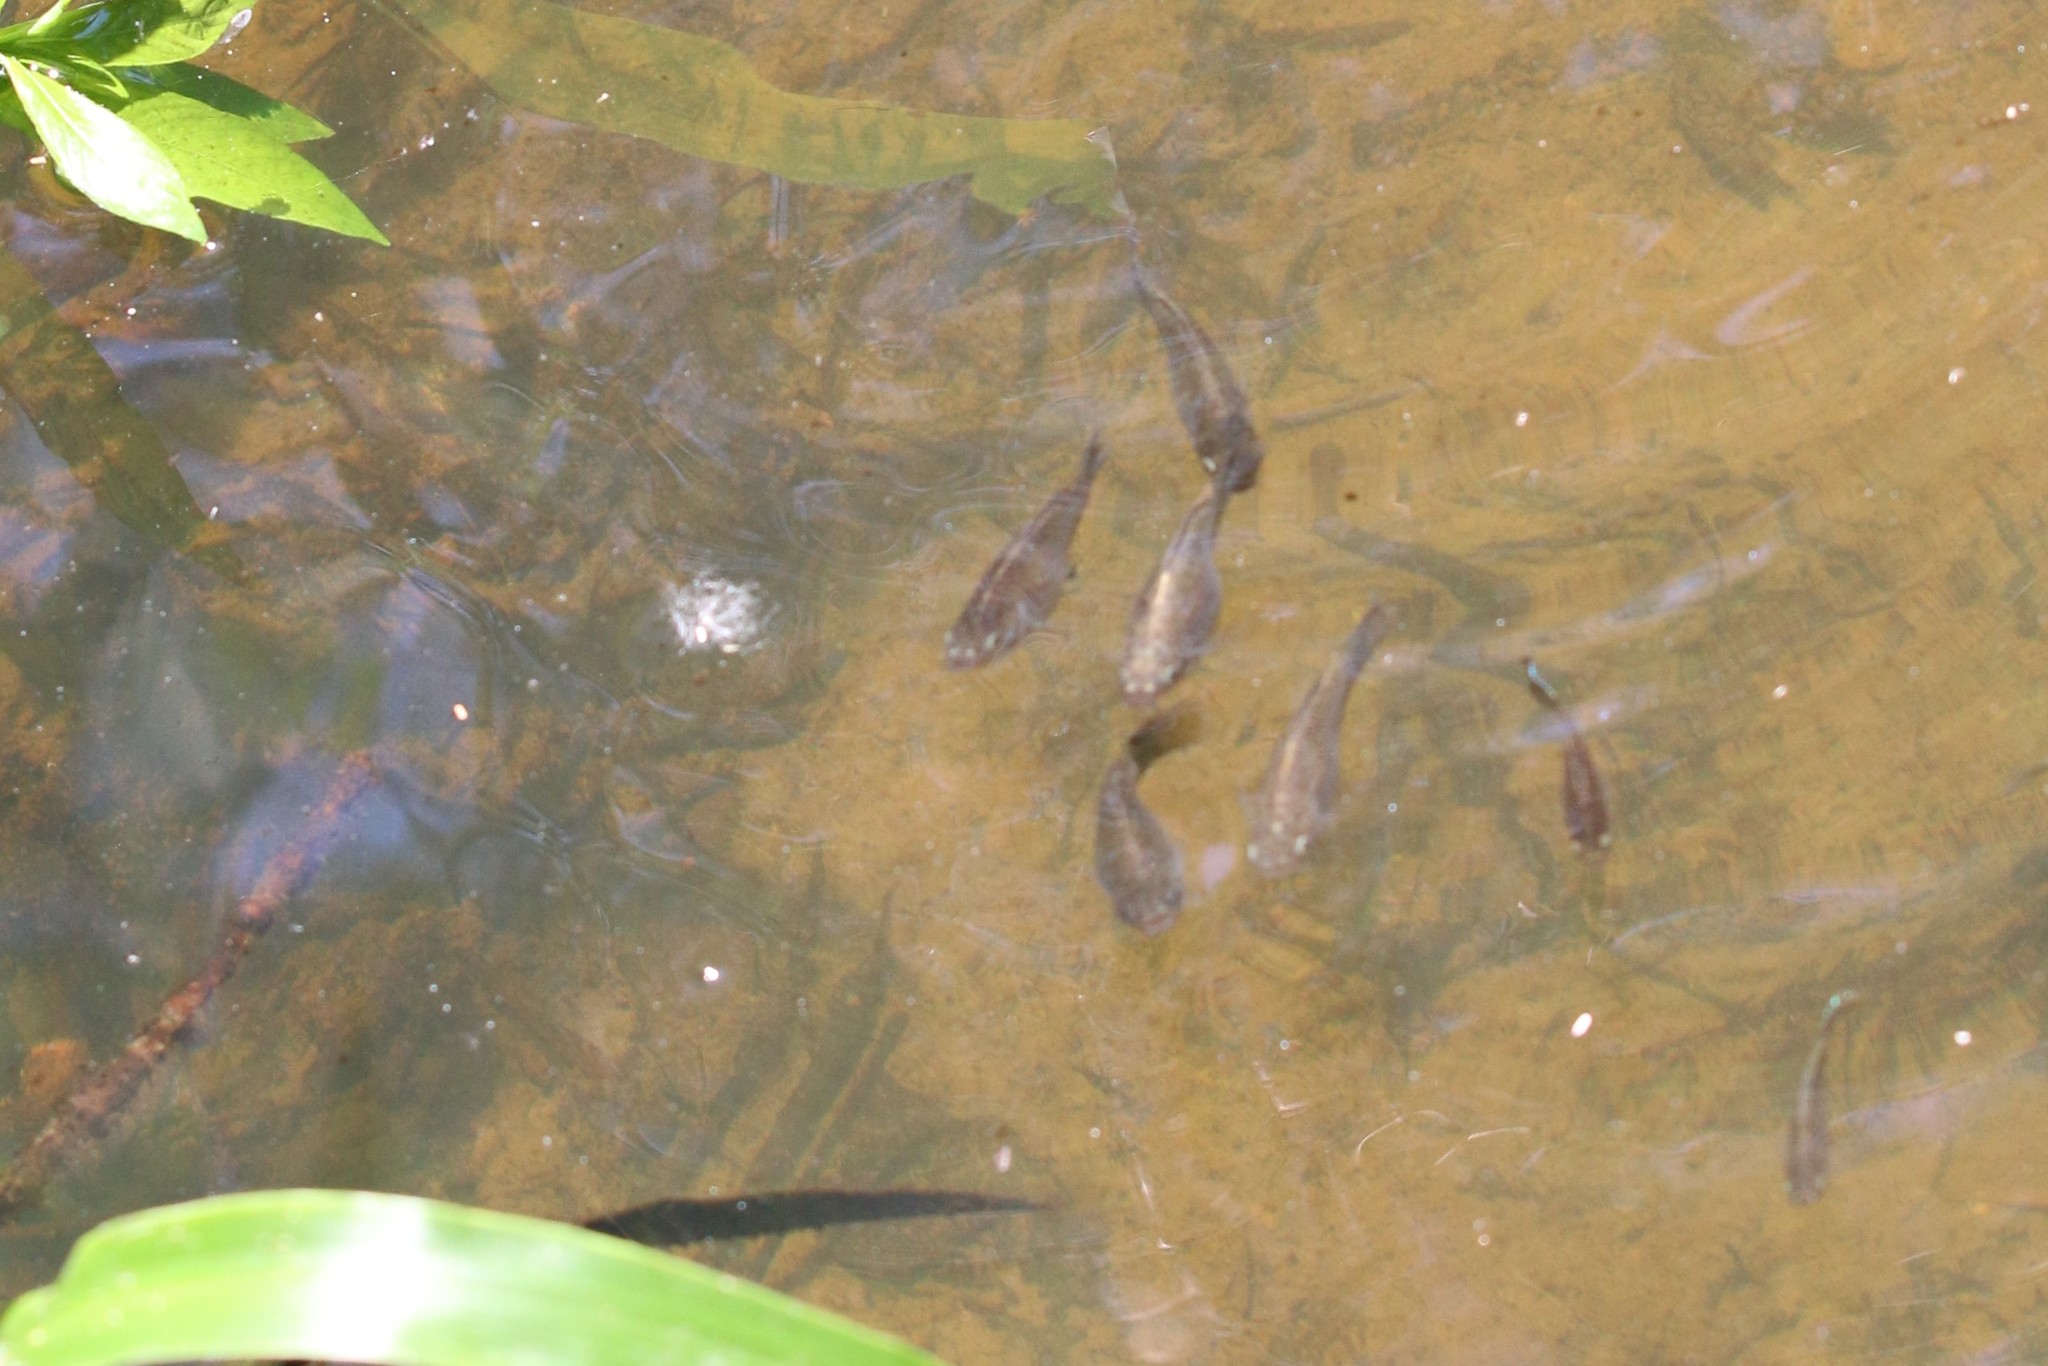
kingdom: Animalia
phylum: Chordata
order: Cyprinodontiformes
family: Poeciliidae
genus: Poecilia
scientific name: Poecilia latipinna
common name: Sailfin molly
